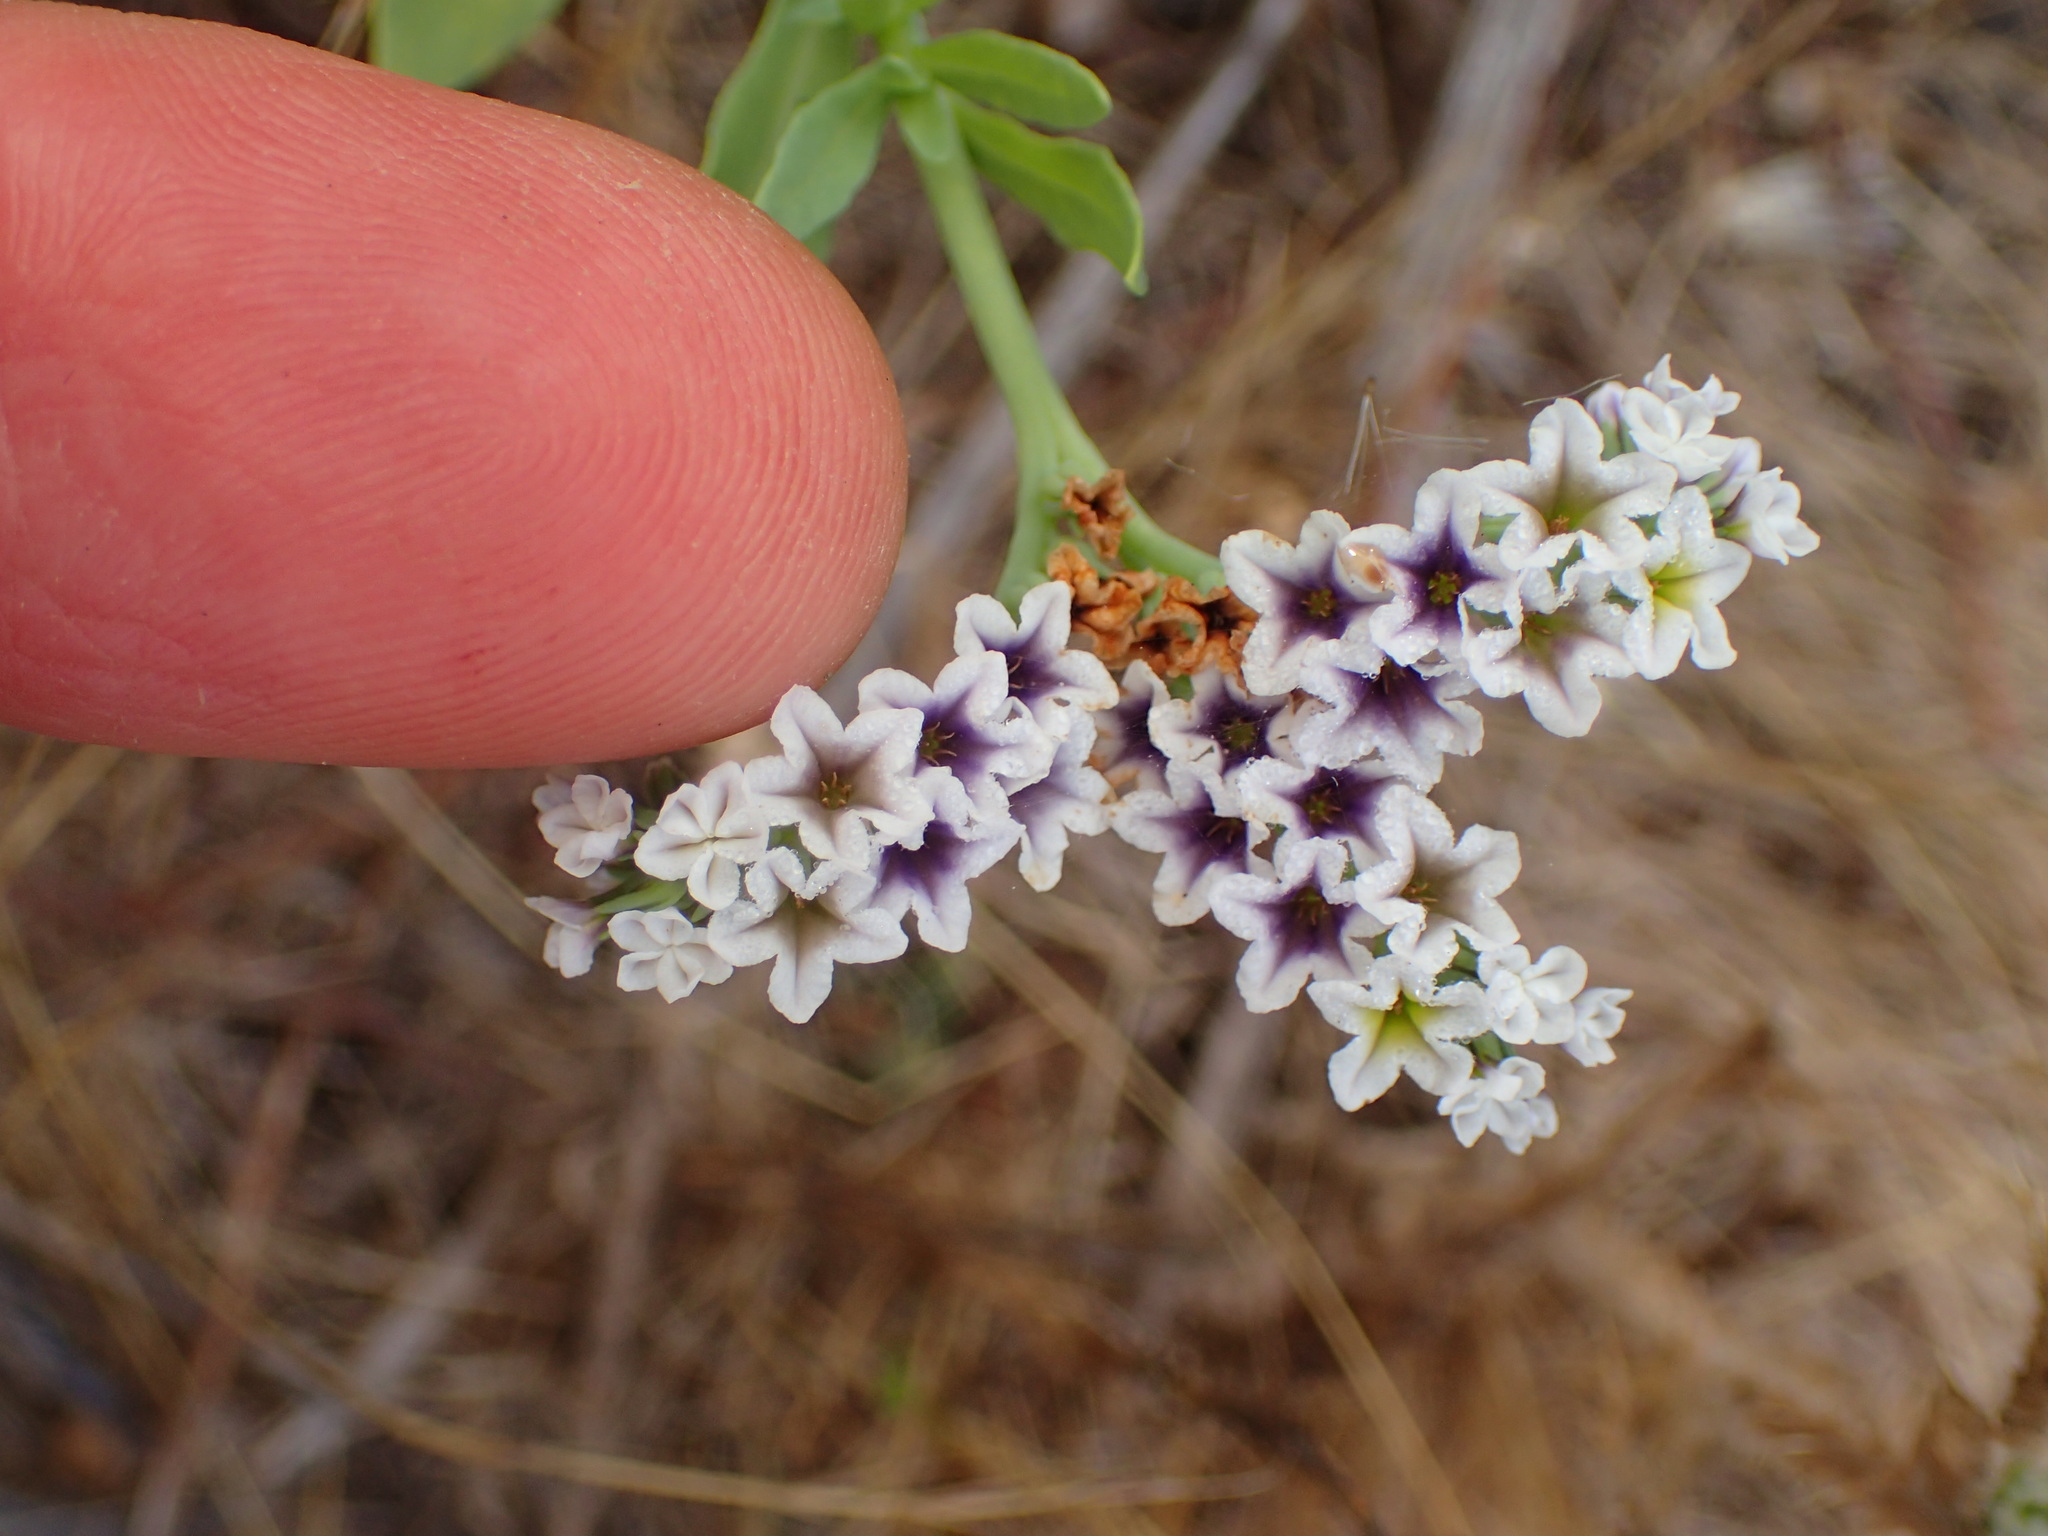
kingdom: Plantae
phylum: Tracheophyta
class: Magnoliopsida
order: Boraginales
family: Heliotropiaceae
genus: Heliotropium
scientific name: Heliotropium curassavicum
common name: Seaside heliotrope
